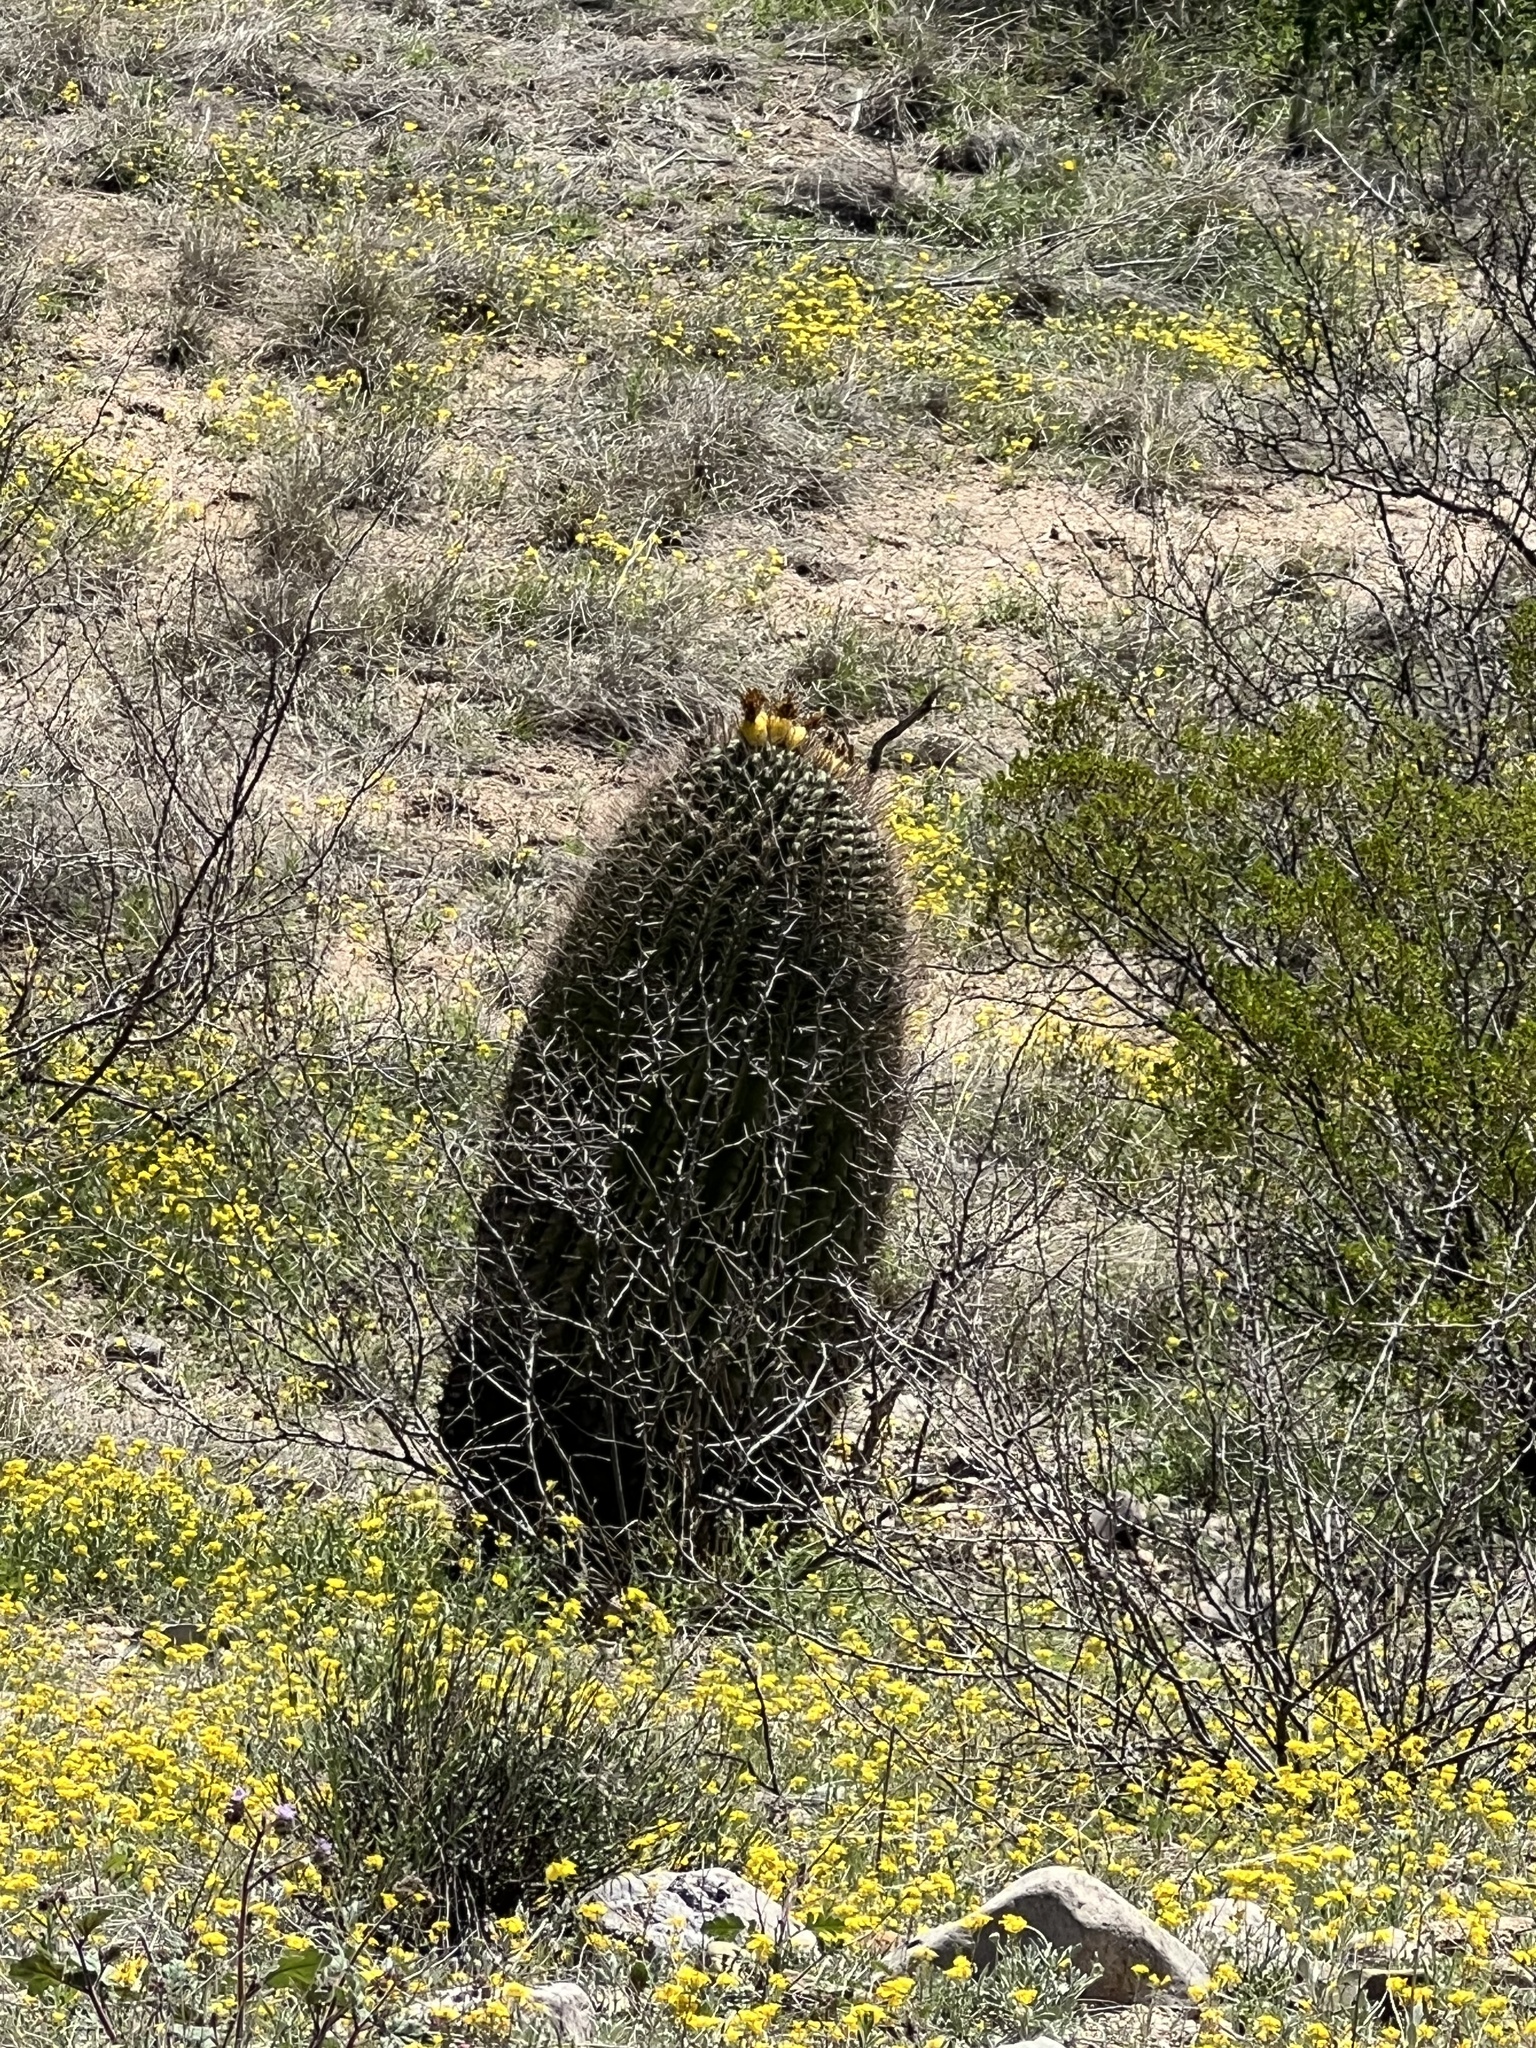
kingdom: Plantae
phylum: Tracheophyta
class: Magnoliopsida
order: Caryophyllales
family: Cactaceae
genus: Ferocactus
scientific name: Ferocactus wislizeni
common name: Candy barrel cactus
